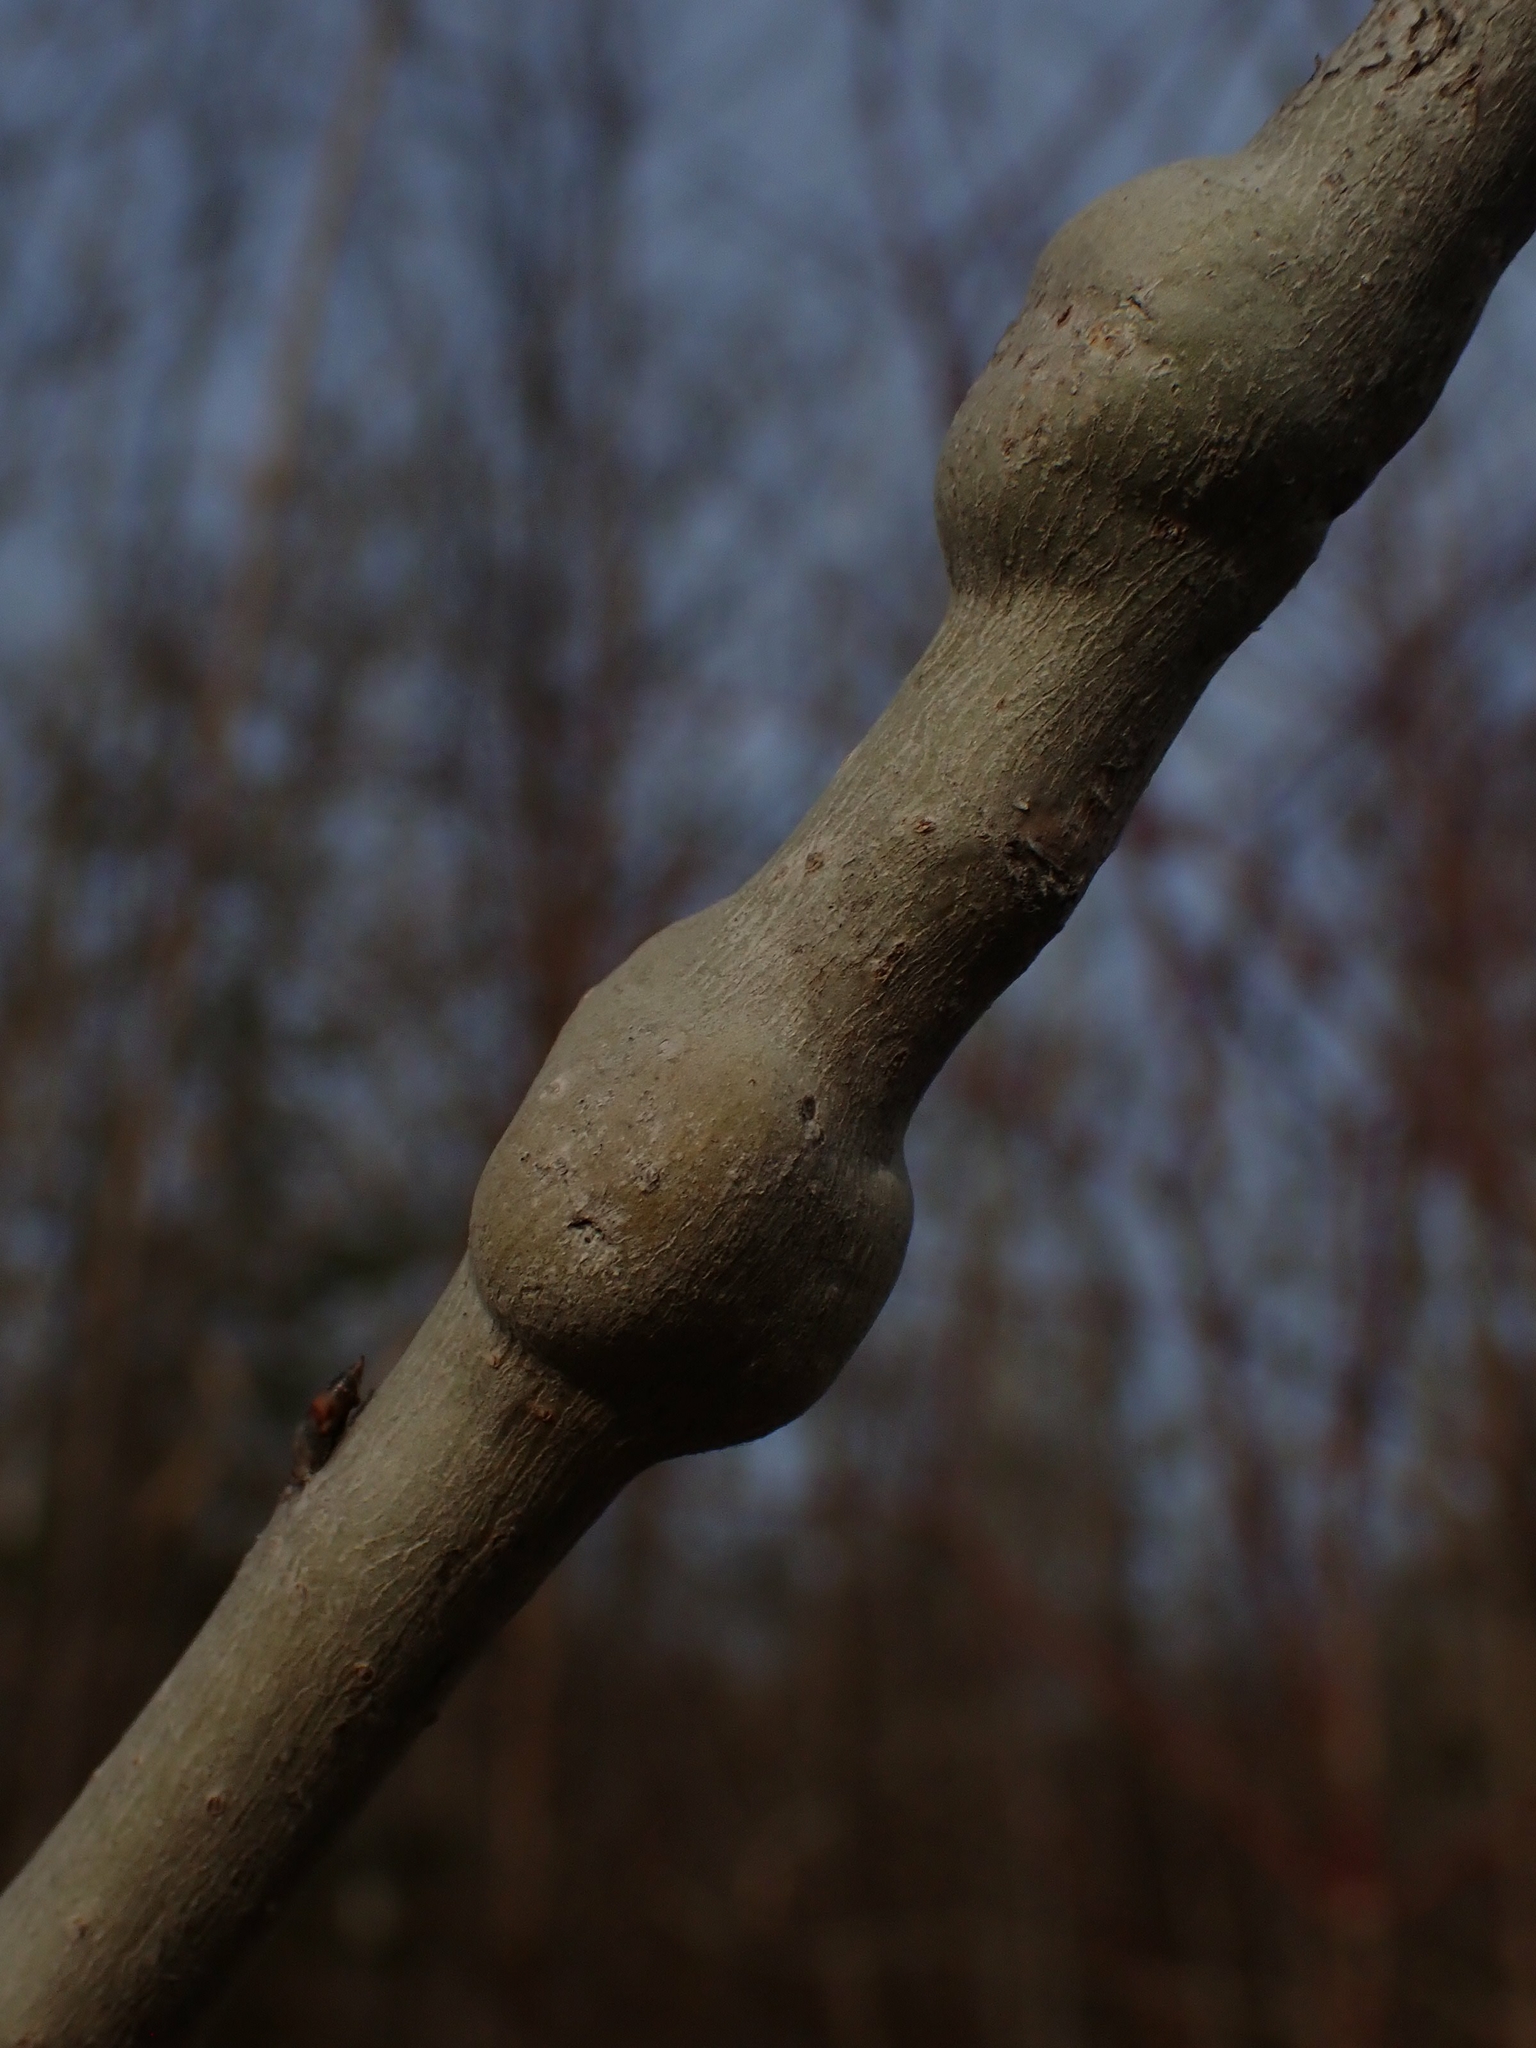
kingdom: Animalia
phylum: Arthropoda
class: Insecta
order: Diptera
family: Agromyzidae
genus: Euhexomyza
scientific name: Euhexomyza schineri
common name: Poplar twiggall fly
